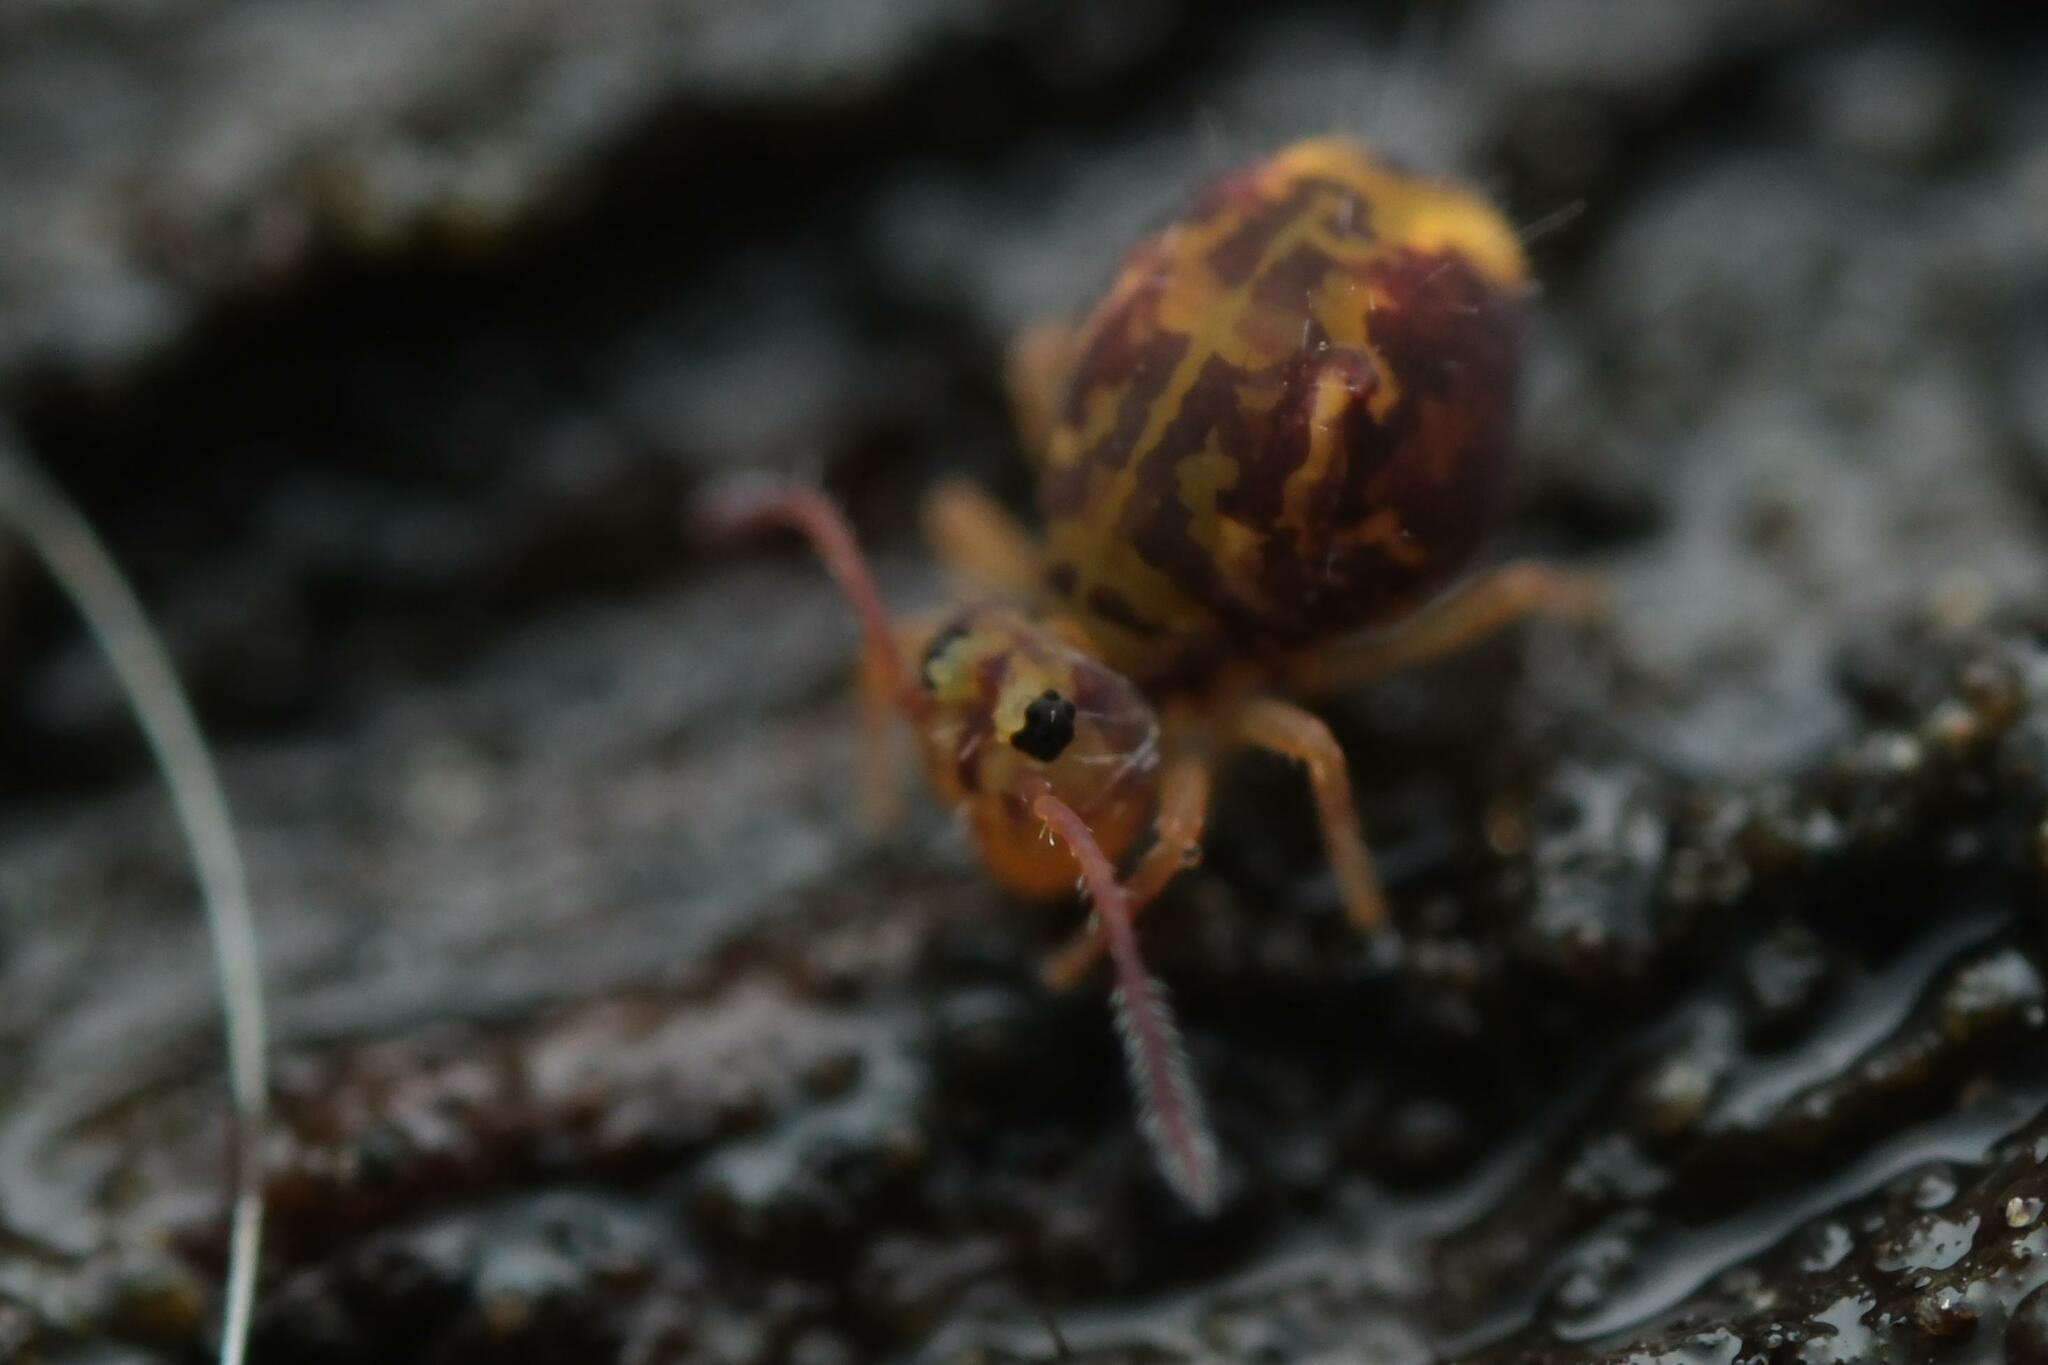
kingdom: Animalia
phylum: Arthropoda
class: Collembola
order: Symphypleona
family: Dicyrtomidae
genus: Dicyrtomina
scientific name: Dicyrtomina ornata
